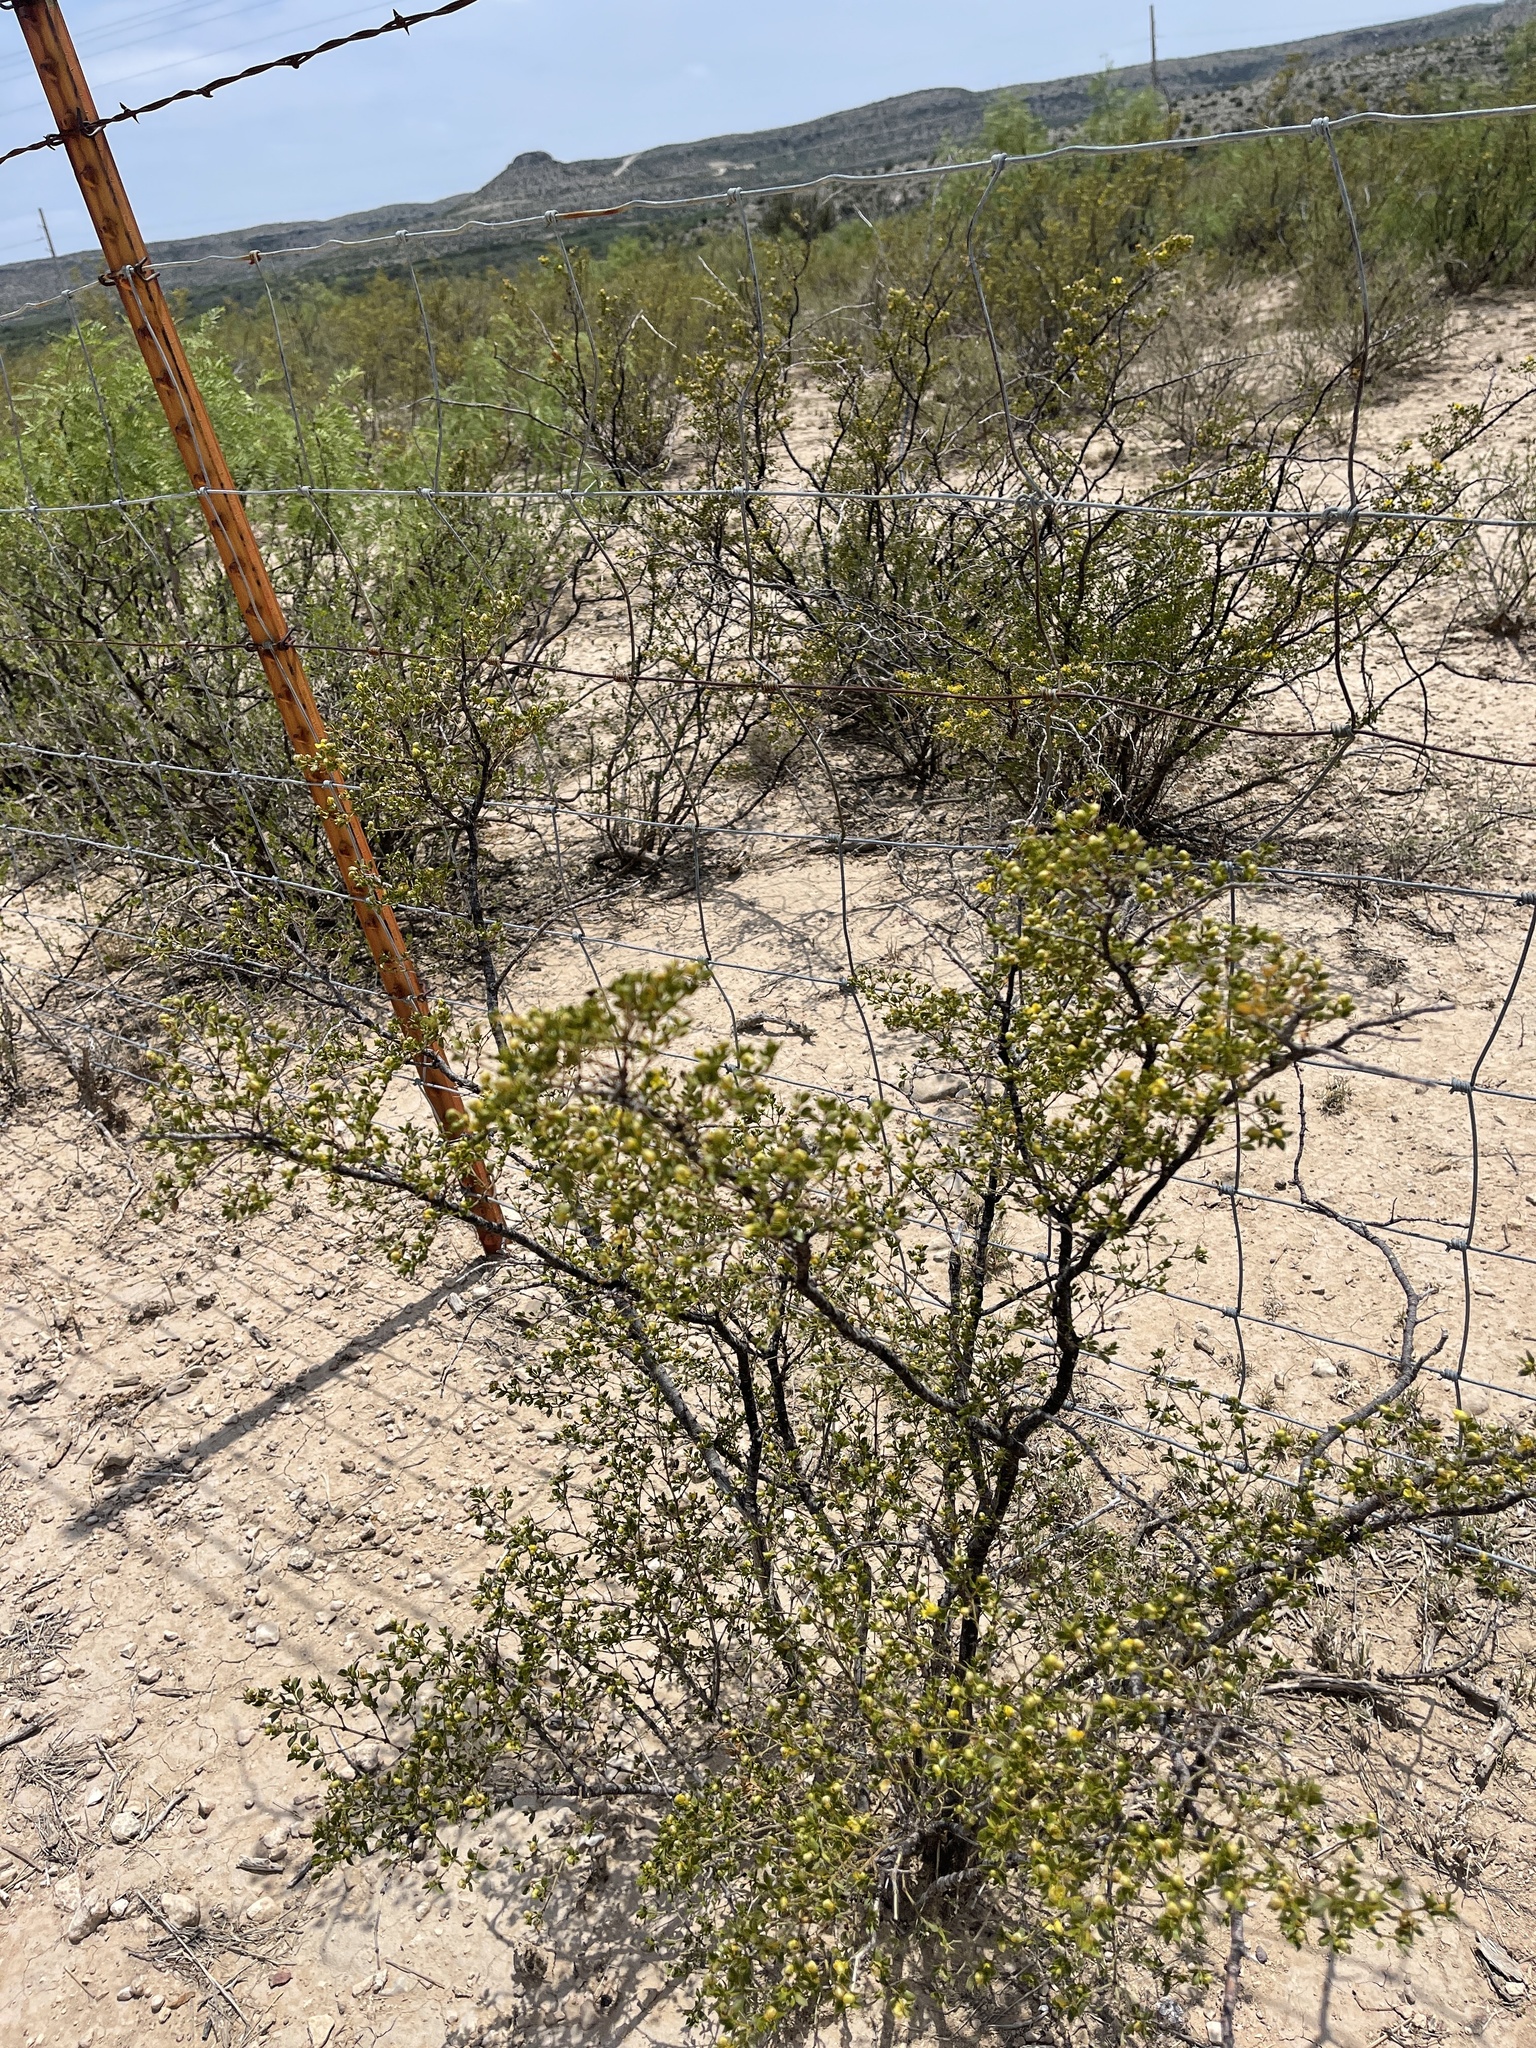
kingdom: Plantae
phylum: Tracheophyta
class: Magnoliopsida
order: Zygophyllales
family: Zygophyllaceae
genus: Larrea
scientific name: Larrea tridentata
